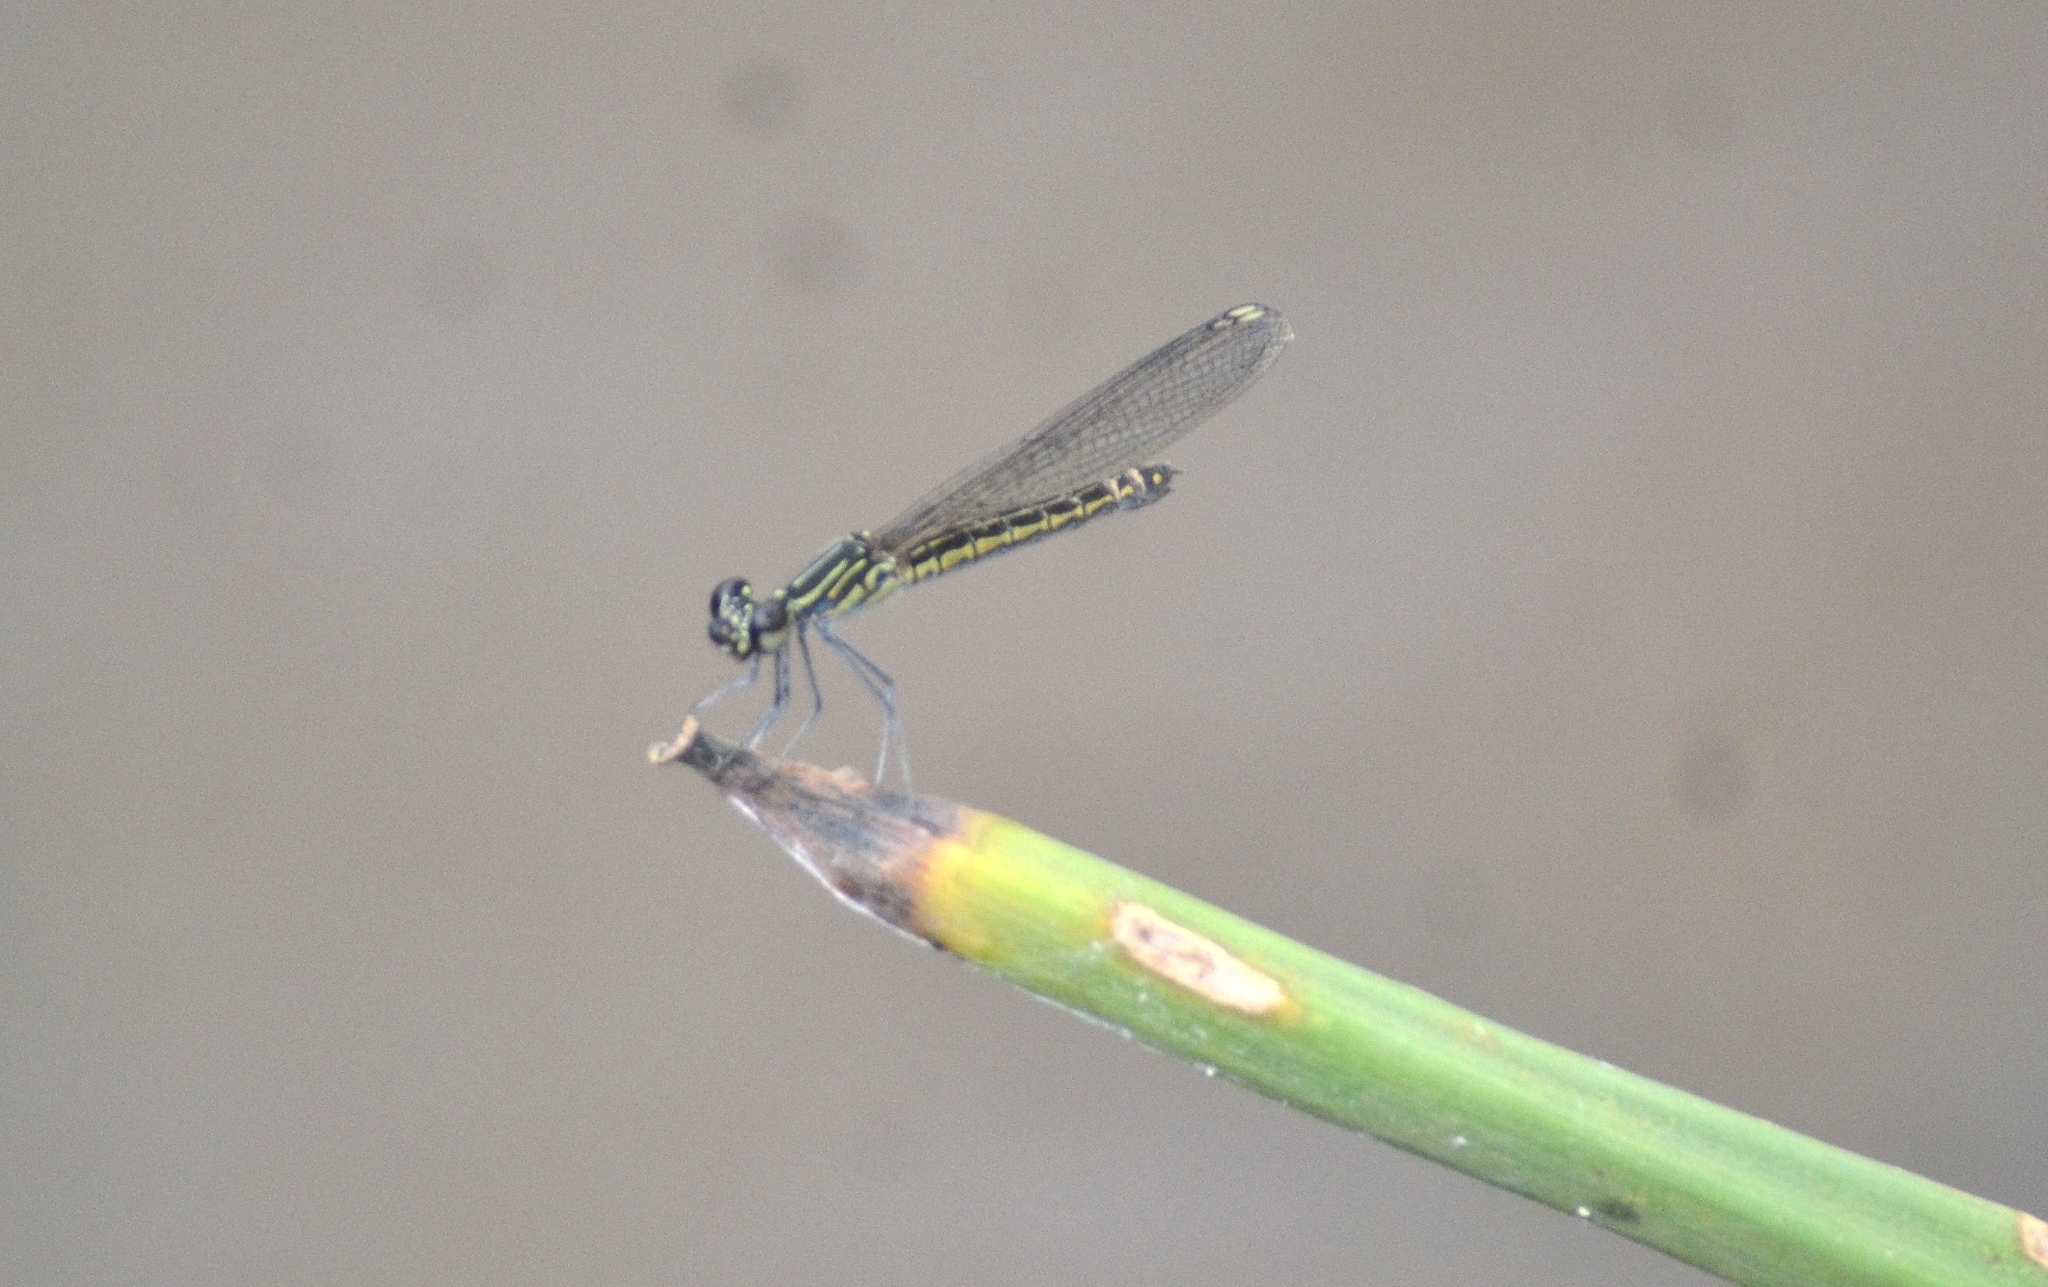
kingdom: Animalia
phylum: Arthropoda
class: Insecta
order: Odonata
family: Chlorocyphidae
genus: Libellago
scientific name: Libellago indica
